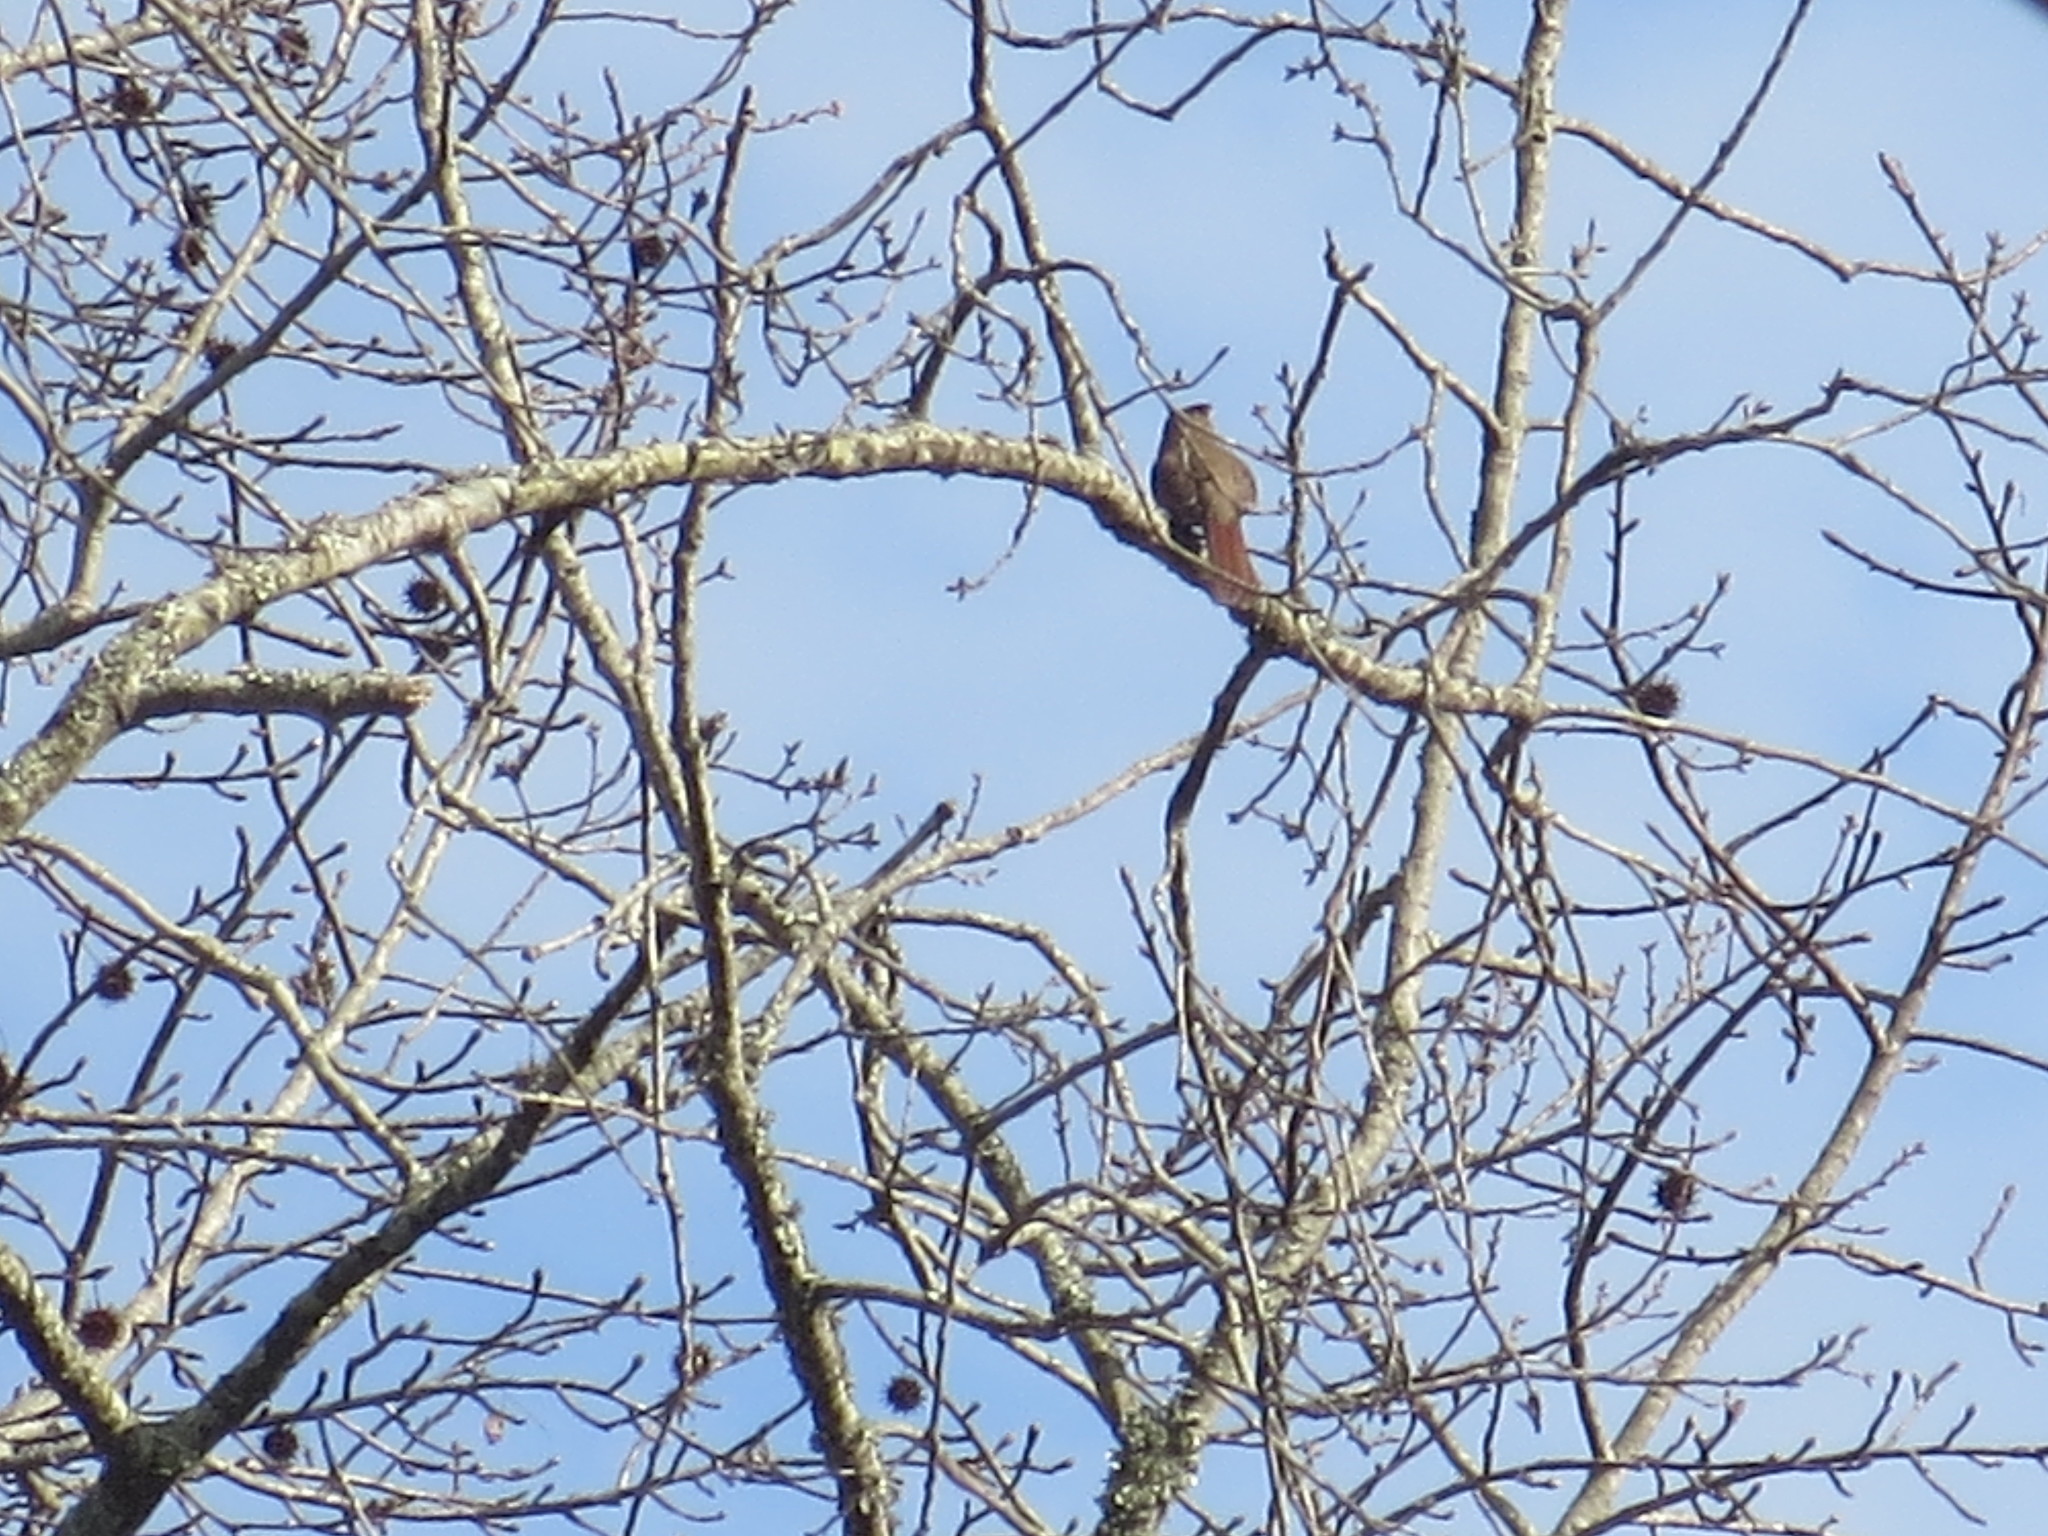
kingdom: Animalia
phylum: Chordata
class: Aves
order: Passeriformes
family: Cardinalidae
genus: Cardinalis
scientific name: Cardinalis cardinalis
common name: Northern cardinal
